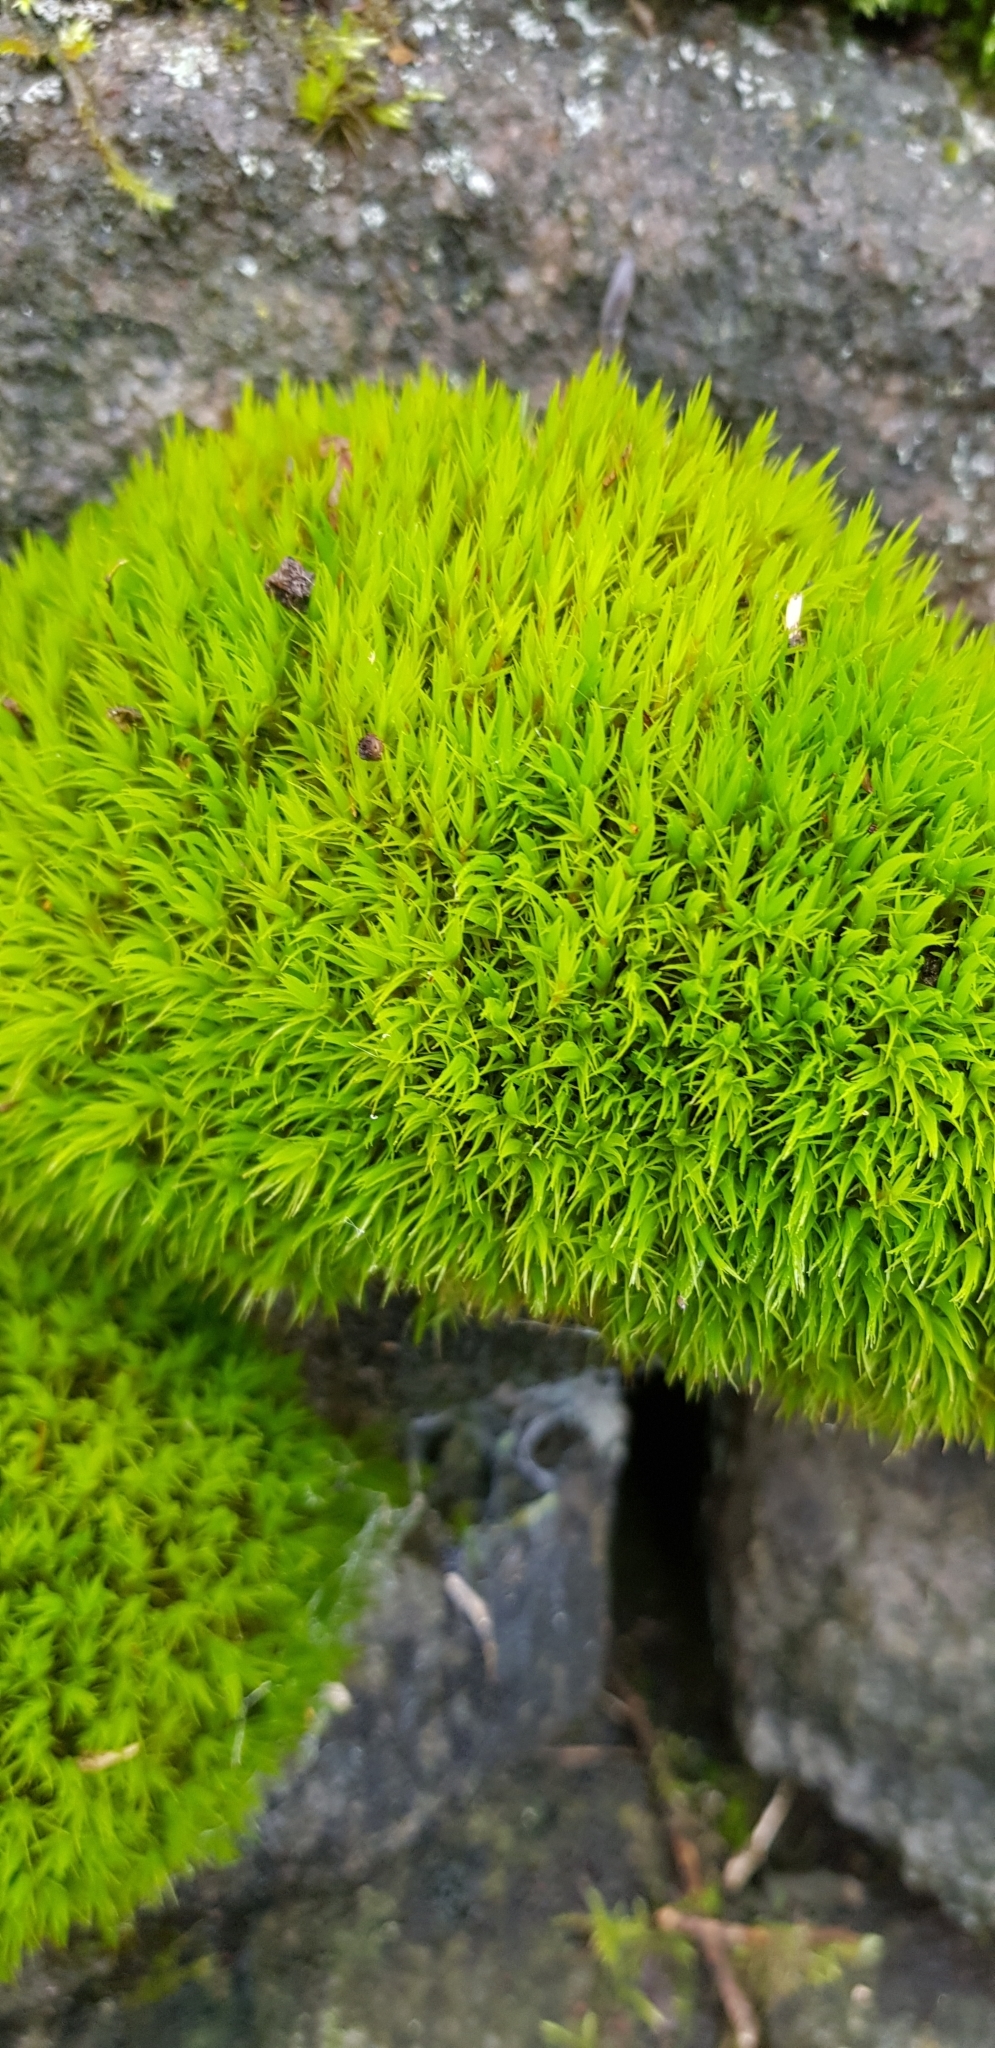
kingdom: Plantae
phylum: Bryophyta
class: Bryopsida
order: Dicranales
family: Dicranaceae
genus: Dicranum
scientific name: Dicranum scoparium
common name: Broom fork-moss
